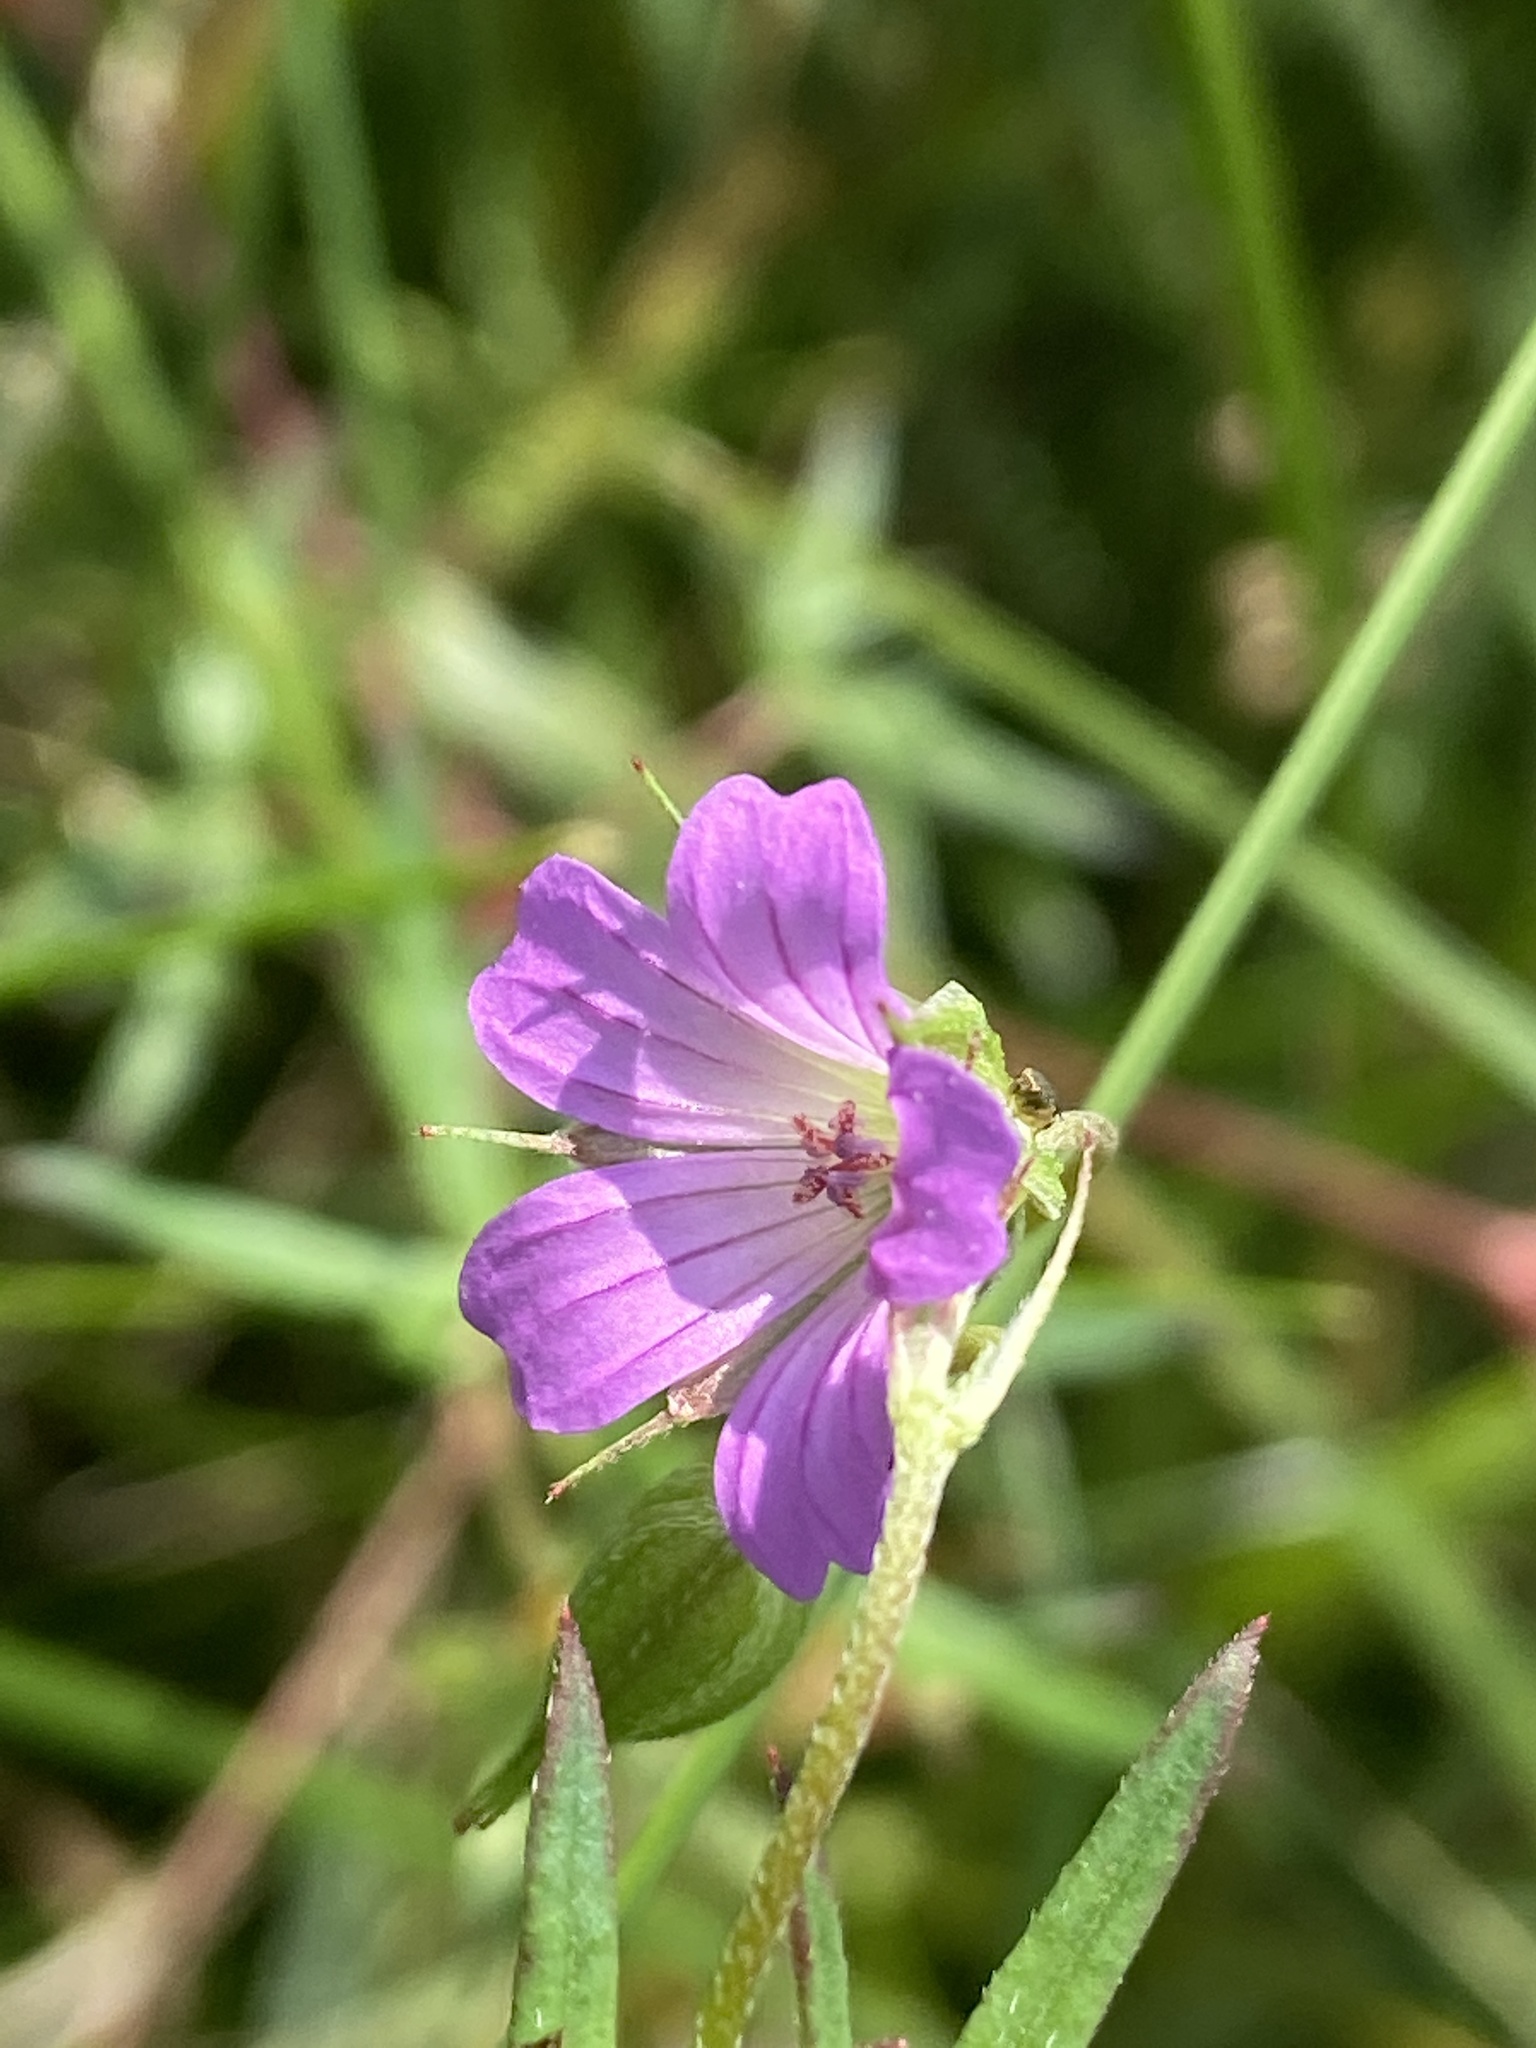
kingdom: Plantae
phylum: Tracheophyta
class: Magnoliopsida
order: Geraniales
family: Geraniaceae
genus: Geranium
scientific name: Geranium columbinum
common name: Long-stalked crane's-bill
